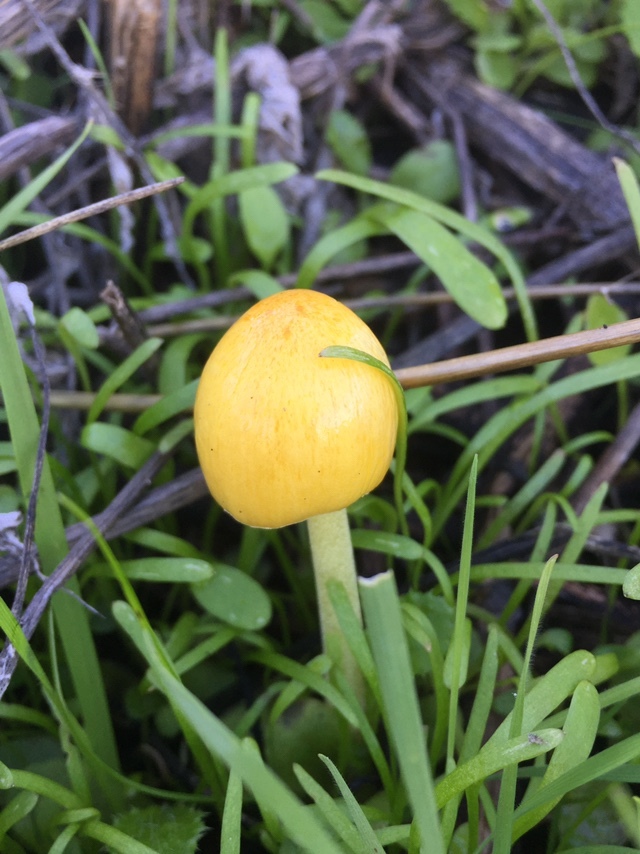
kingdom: Fungi
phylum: Basidiomycota
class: Agaricomycetes
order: Agaricales
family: Bolbitiaceae
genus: Bolbitius
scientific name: Bolbitius titubans
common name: Yellow fieldcap
